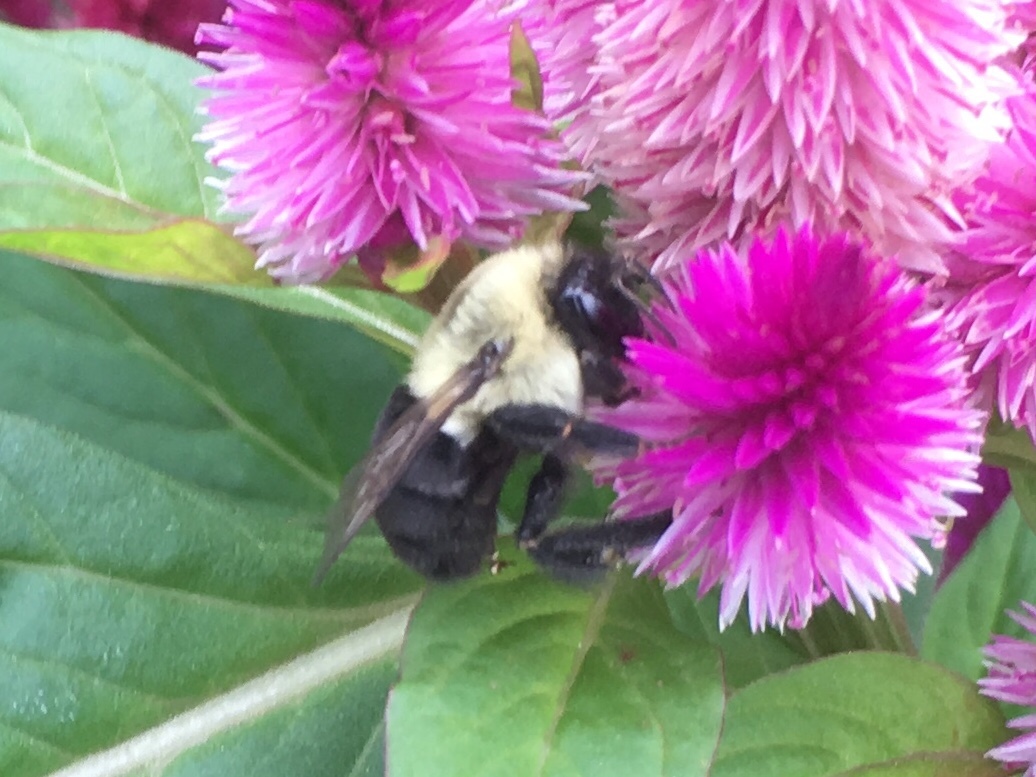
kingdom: Animalia
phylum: Arthropoda
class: Insecta
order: Hymenoptera
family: Apidae
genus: Bombus
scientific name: Bombus impatiens
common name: Common eastern bumble bee
